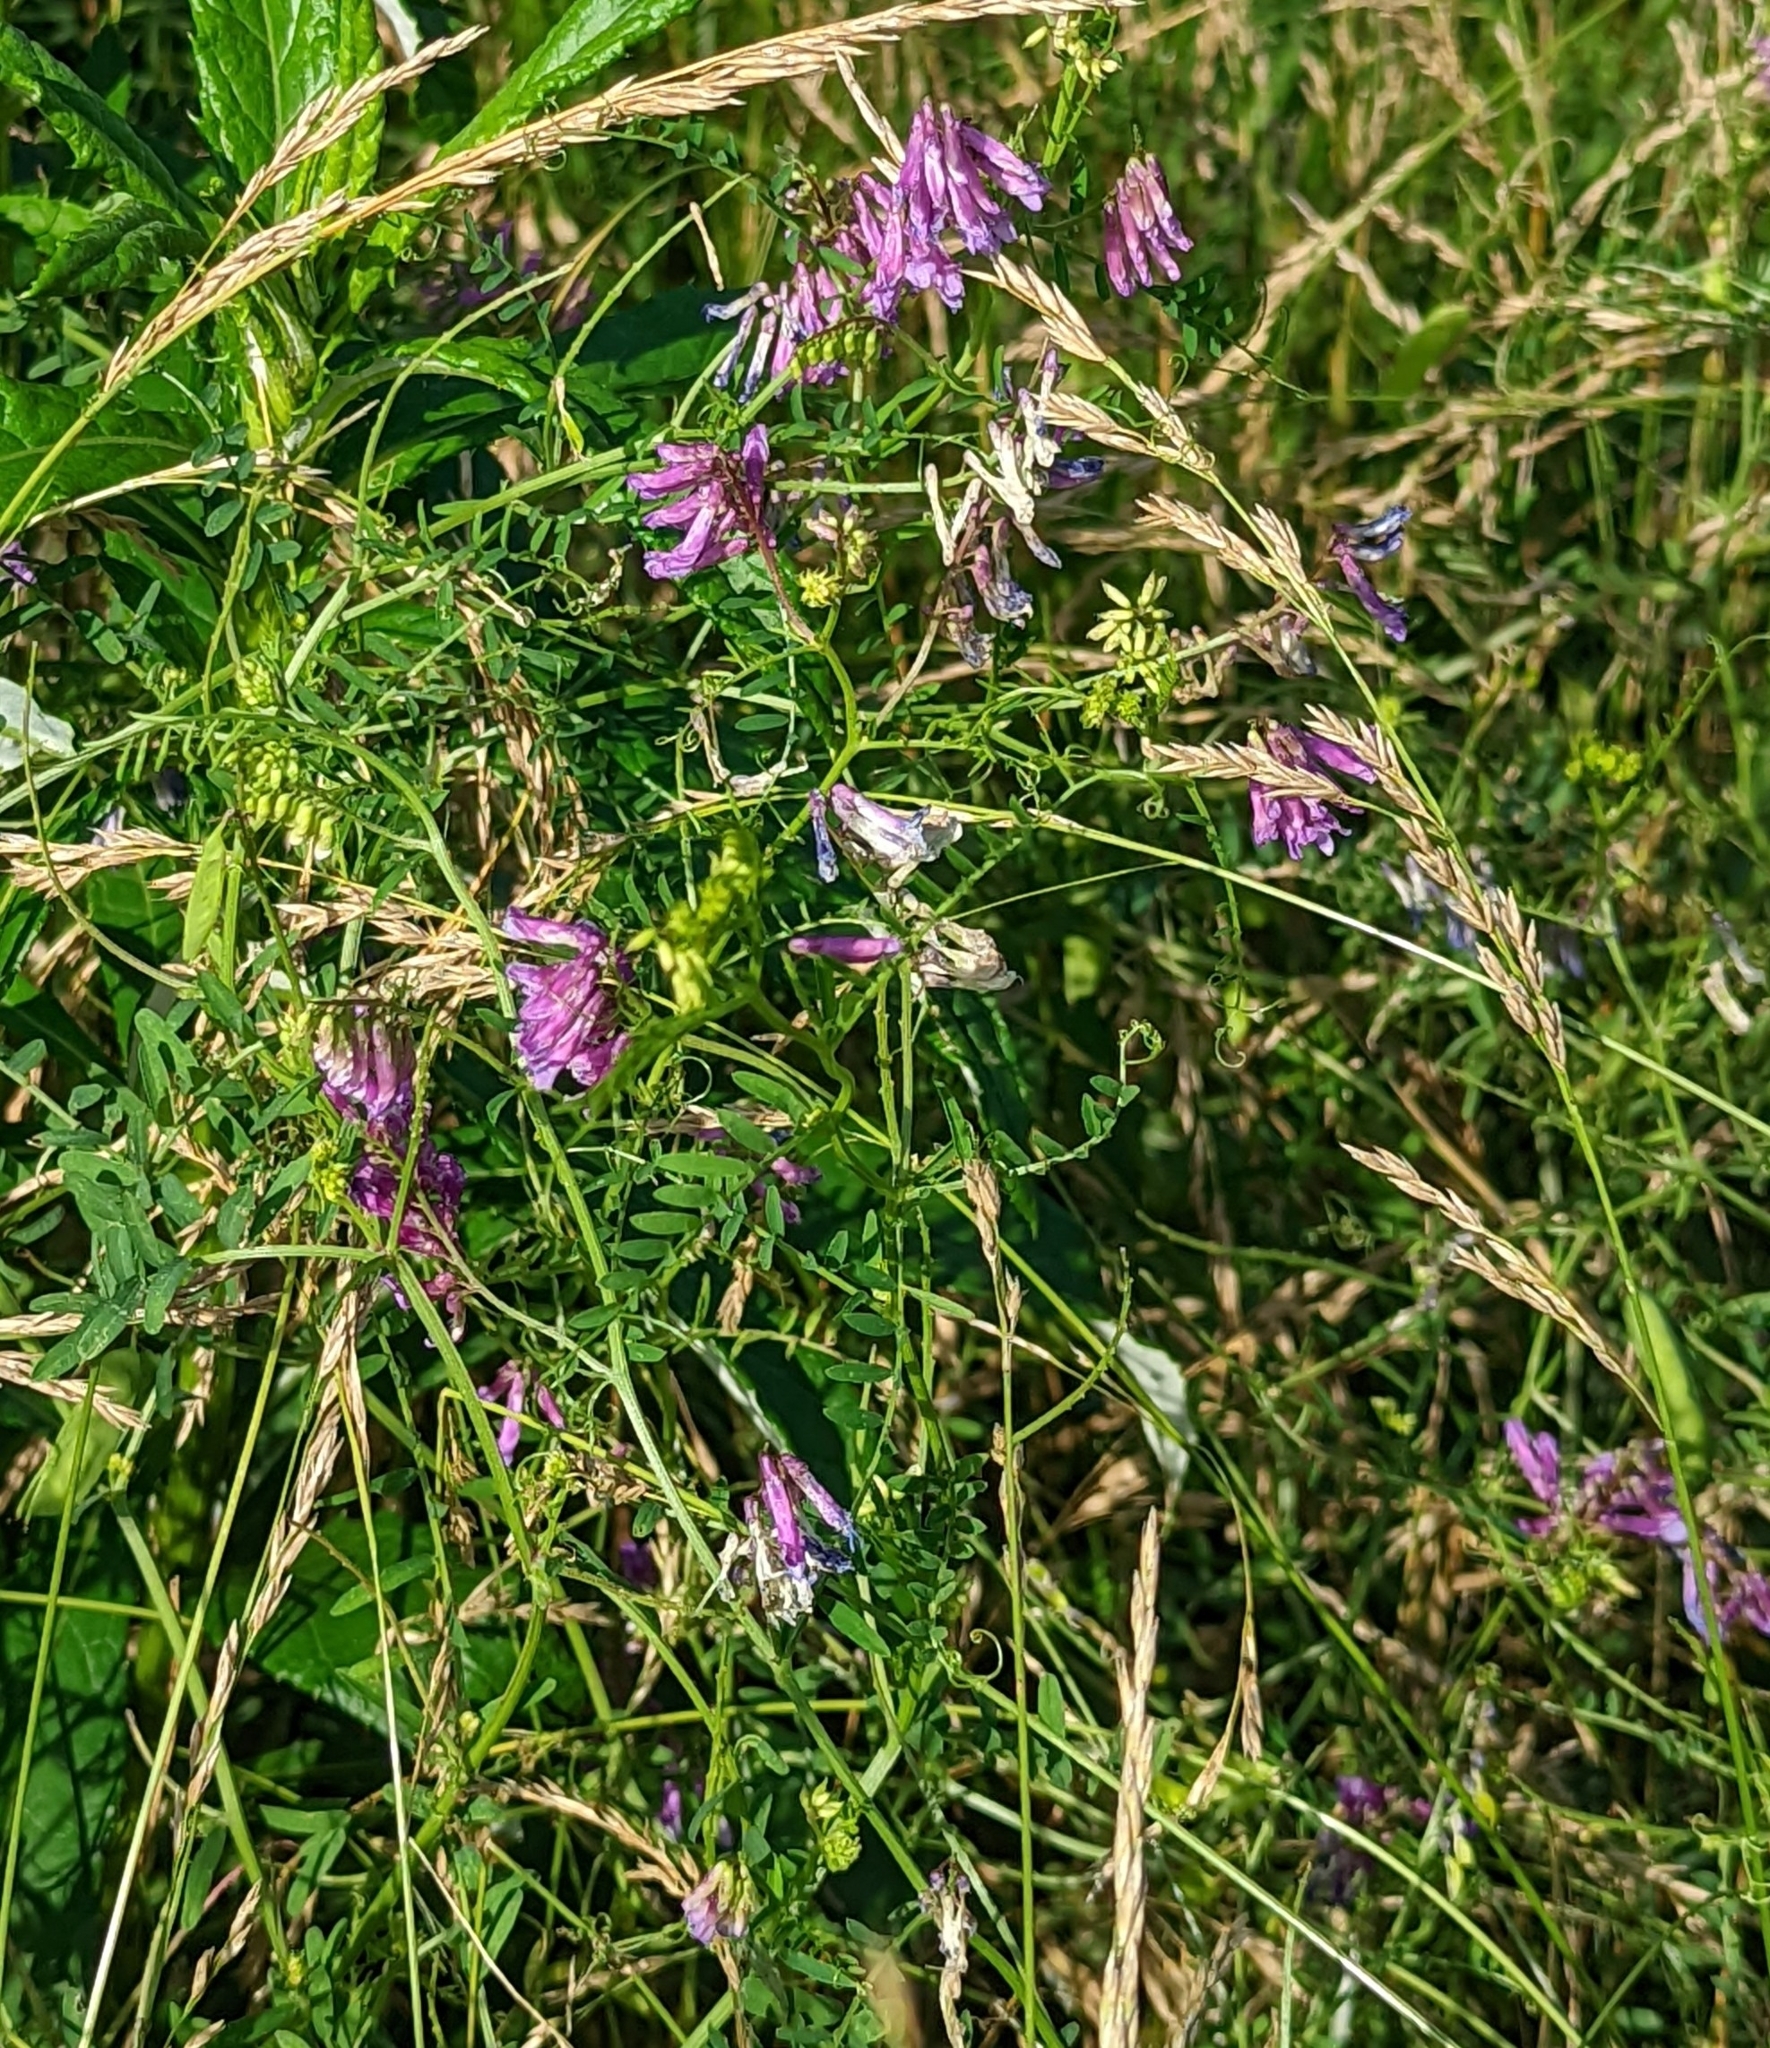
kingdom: Plantae
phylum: Tracheophyta
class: Magnoliopsida
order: Fabales
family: Fabaceae
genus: Vicia
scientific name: Vicia villosa
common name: Fodder vetch
